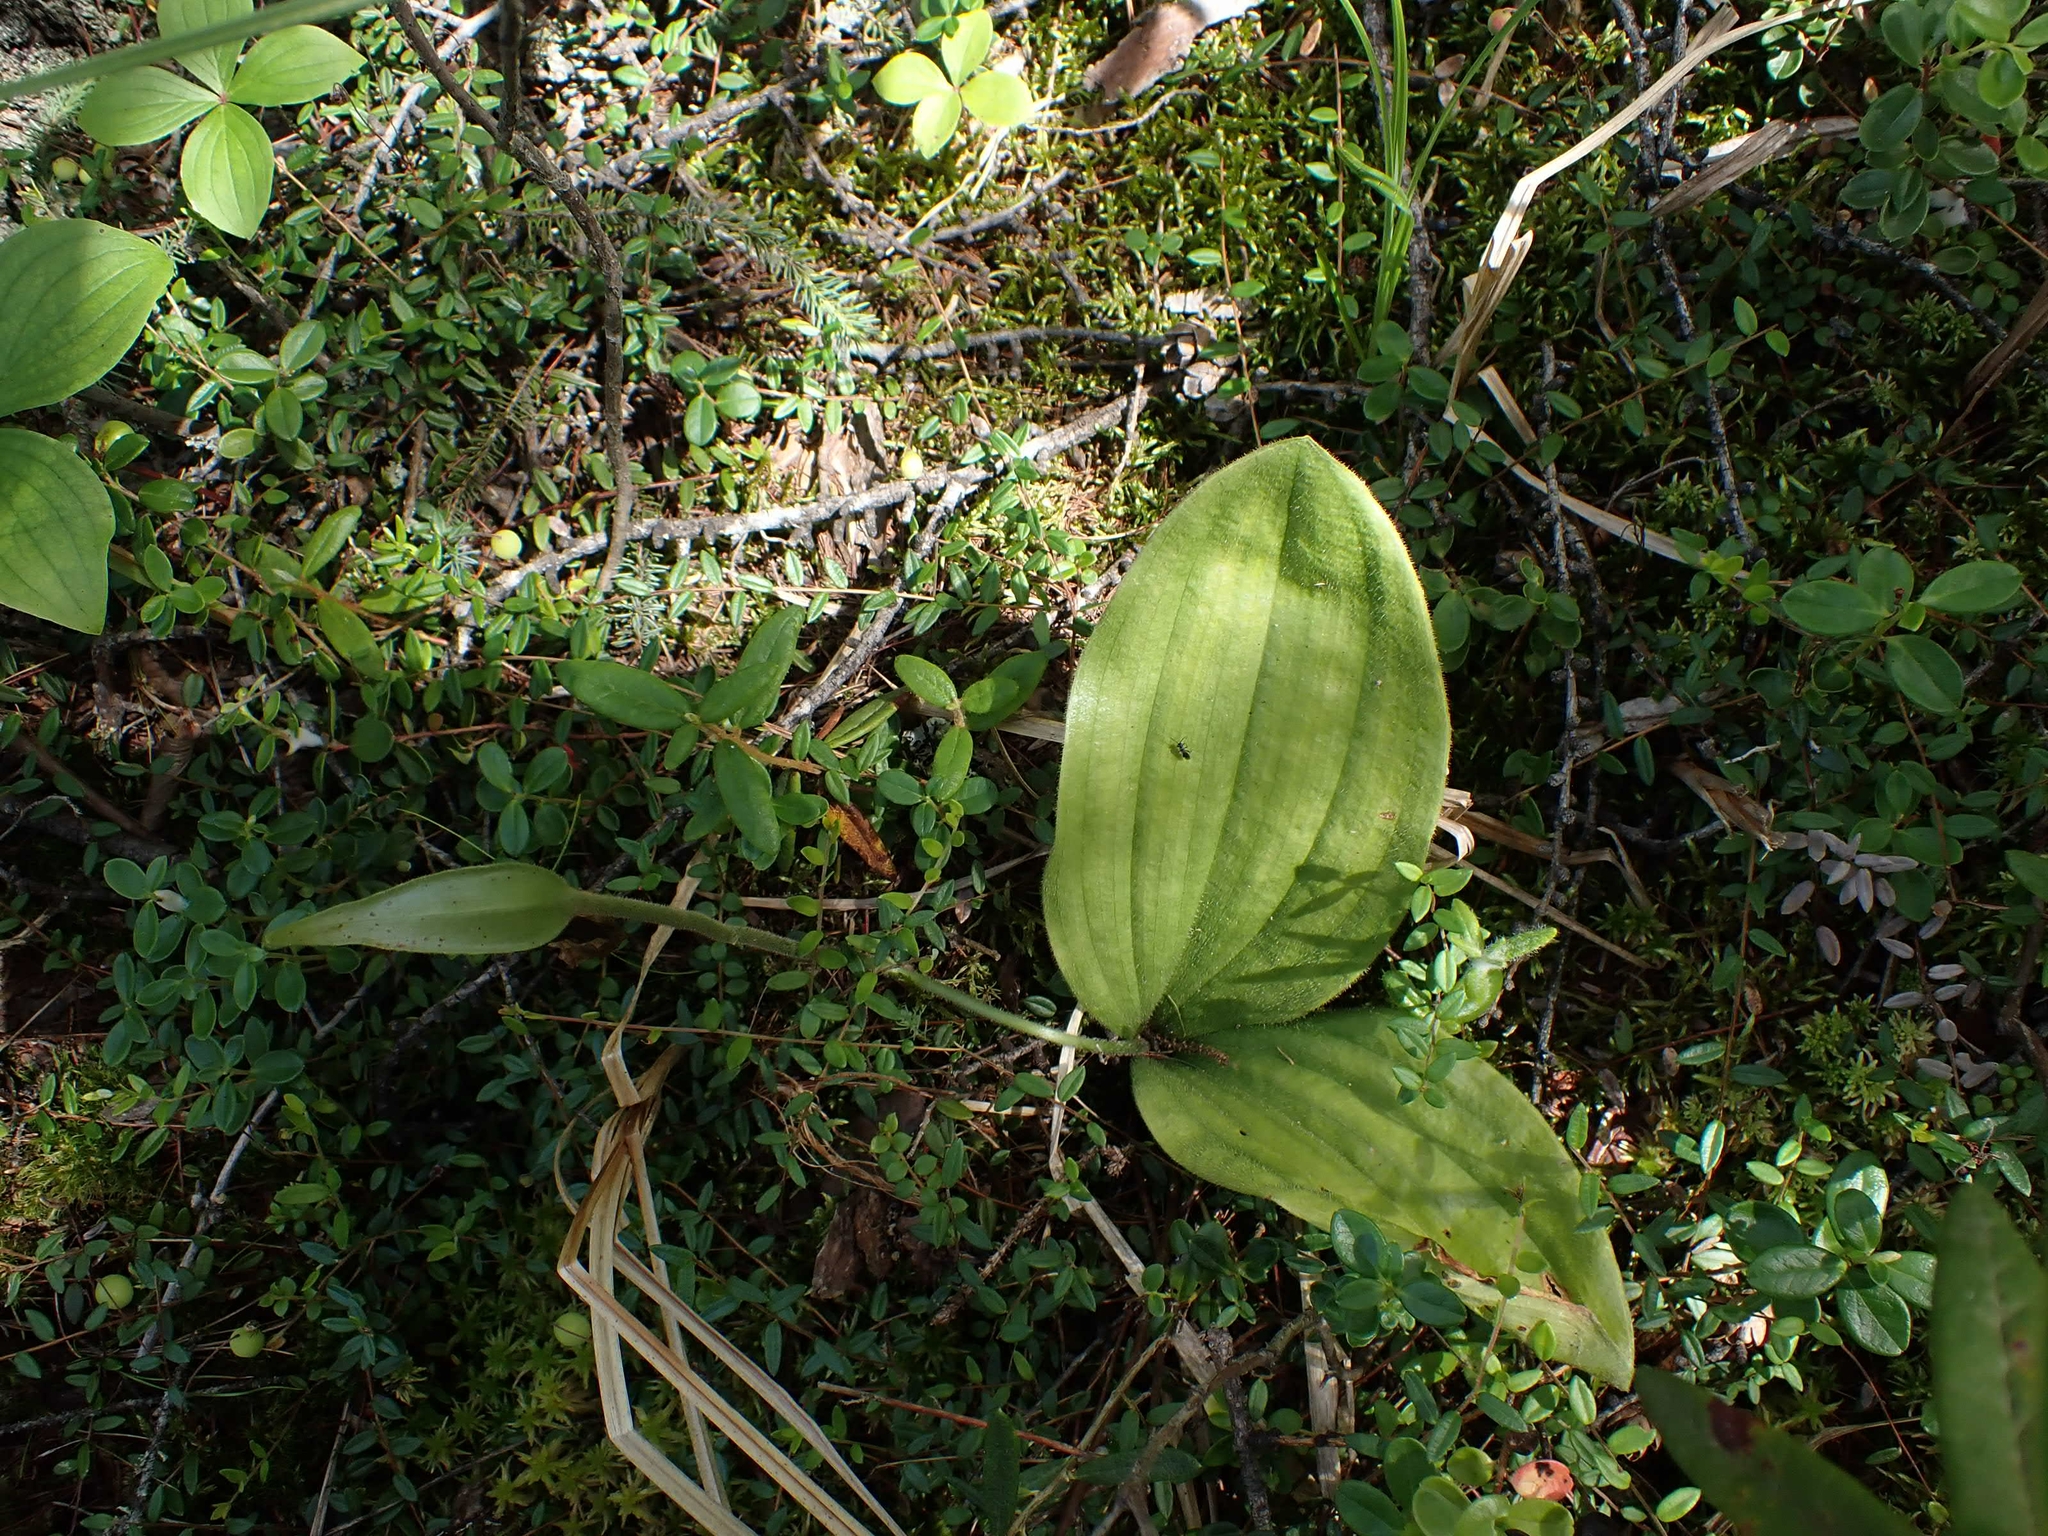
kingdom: Plantae
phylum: Tracheophyta
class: Liliopsida
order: Asparagales
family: Orchidaceae
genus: Cypripedium
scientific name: Cypripedium acaule
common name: Pink lady's-slipper
